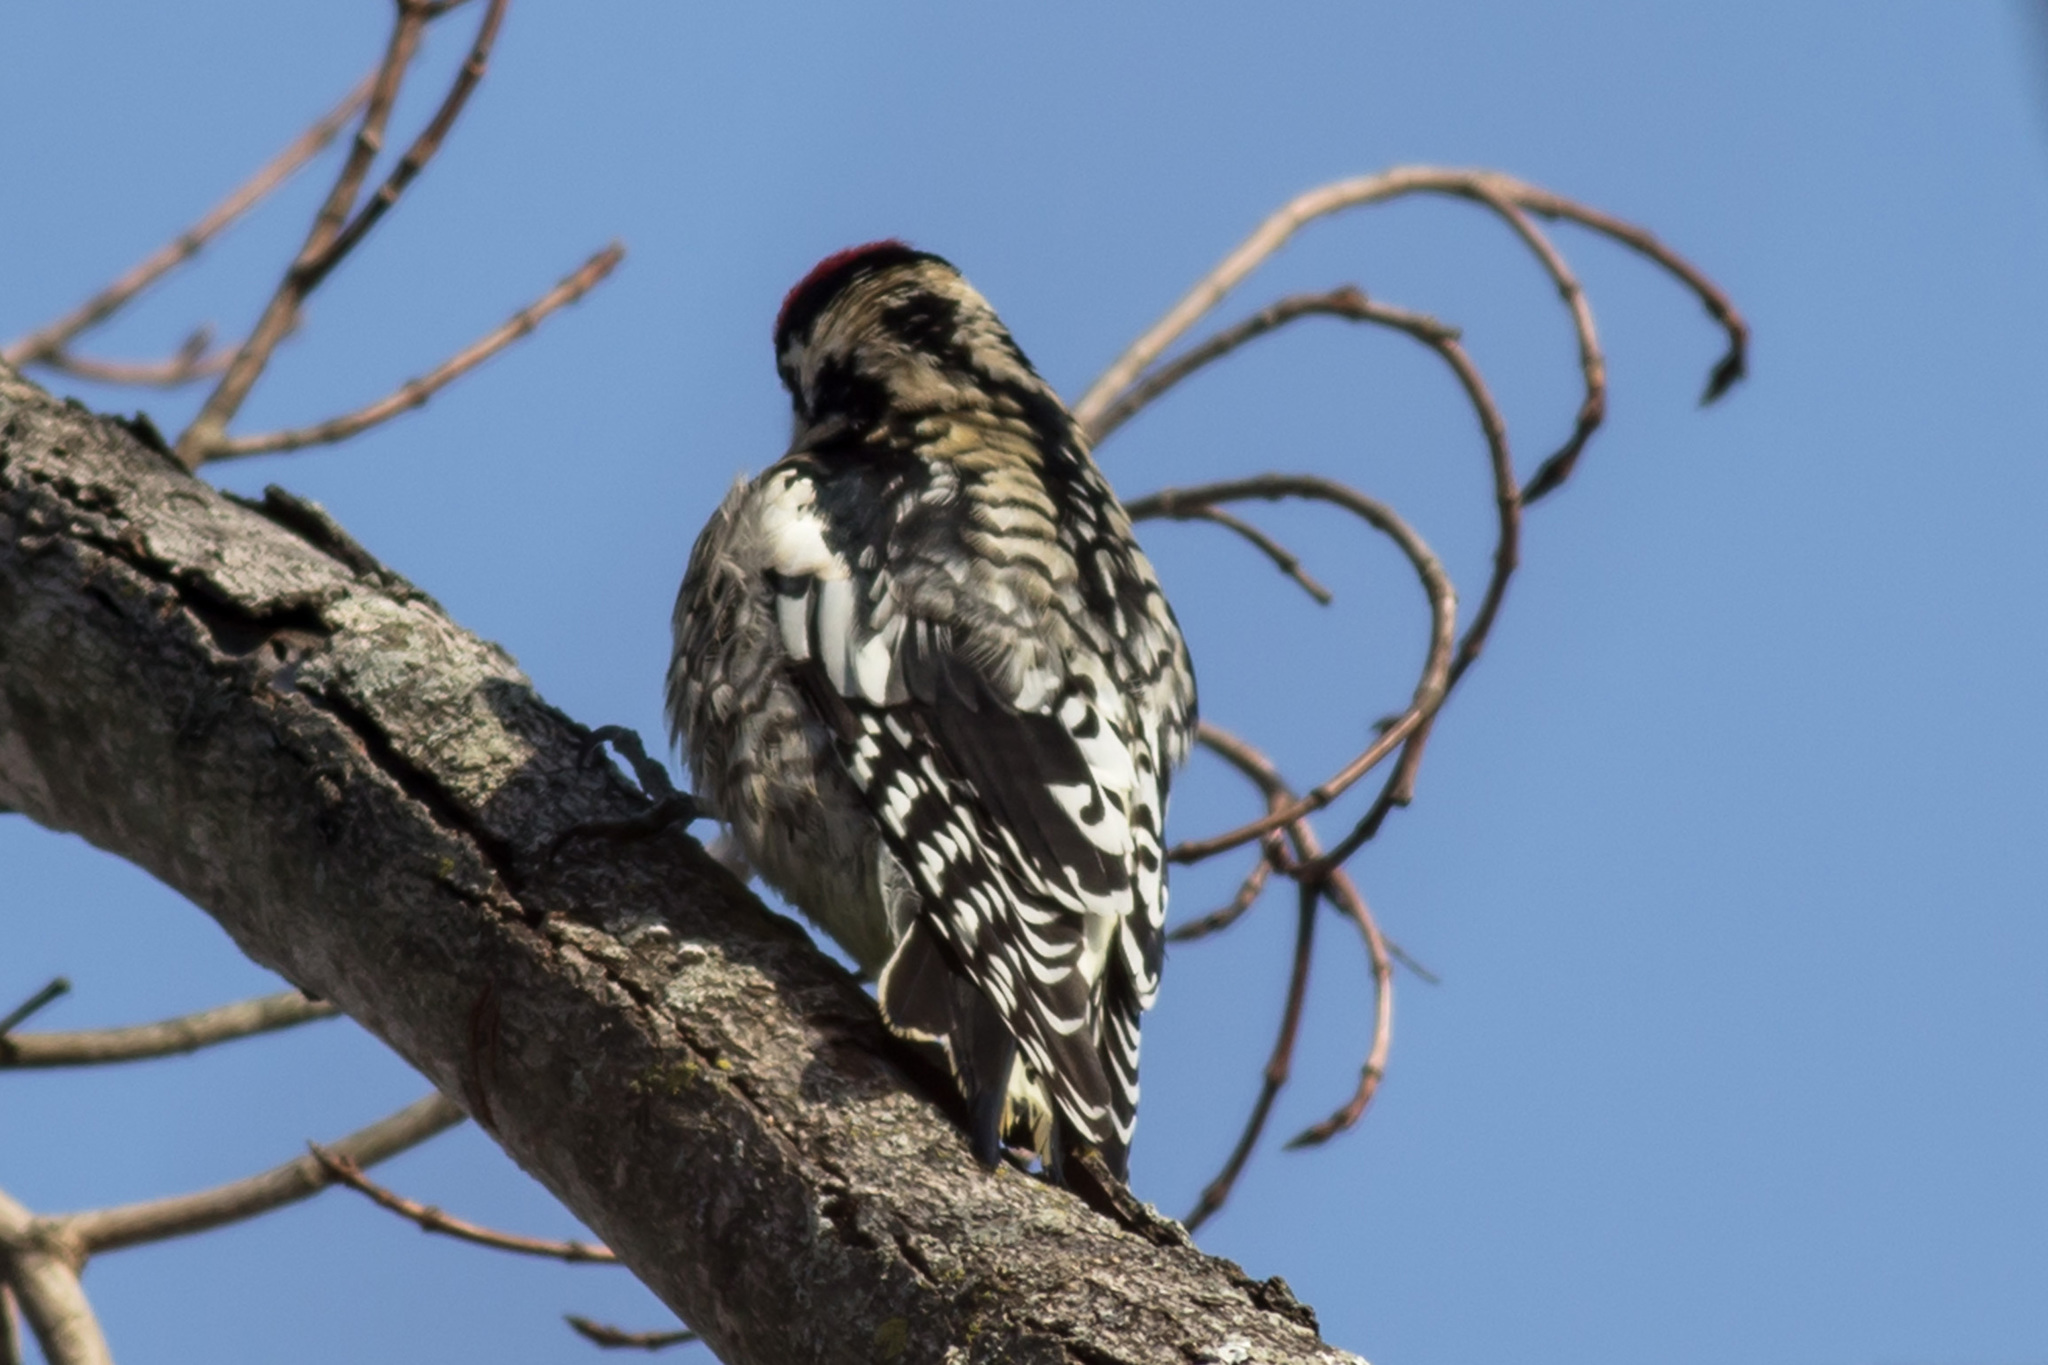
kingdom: Animalia
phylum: Chordata
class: Aves
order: Piciformes
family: Picidae
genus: Sphyrapicus
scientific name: Sphyrapicus varius
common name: Yellow-bellied sapsucker
